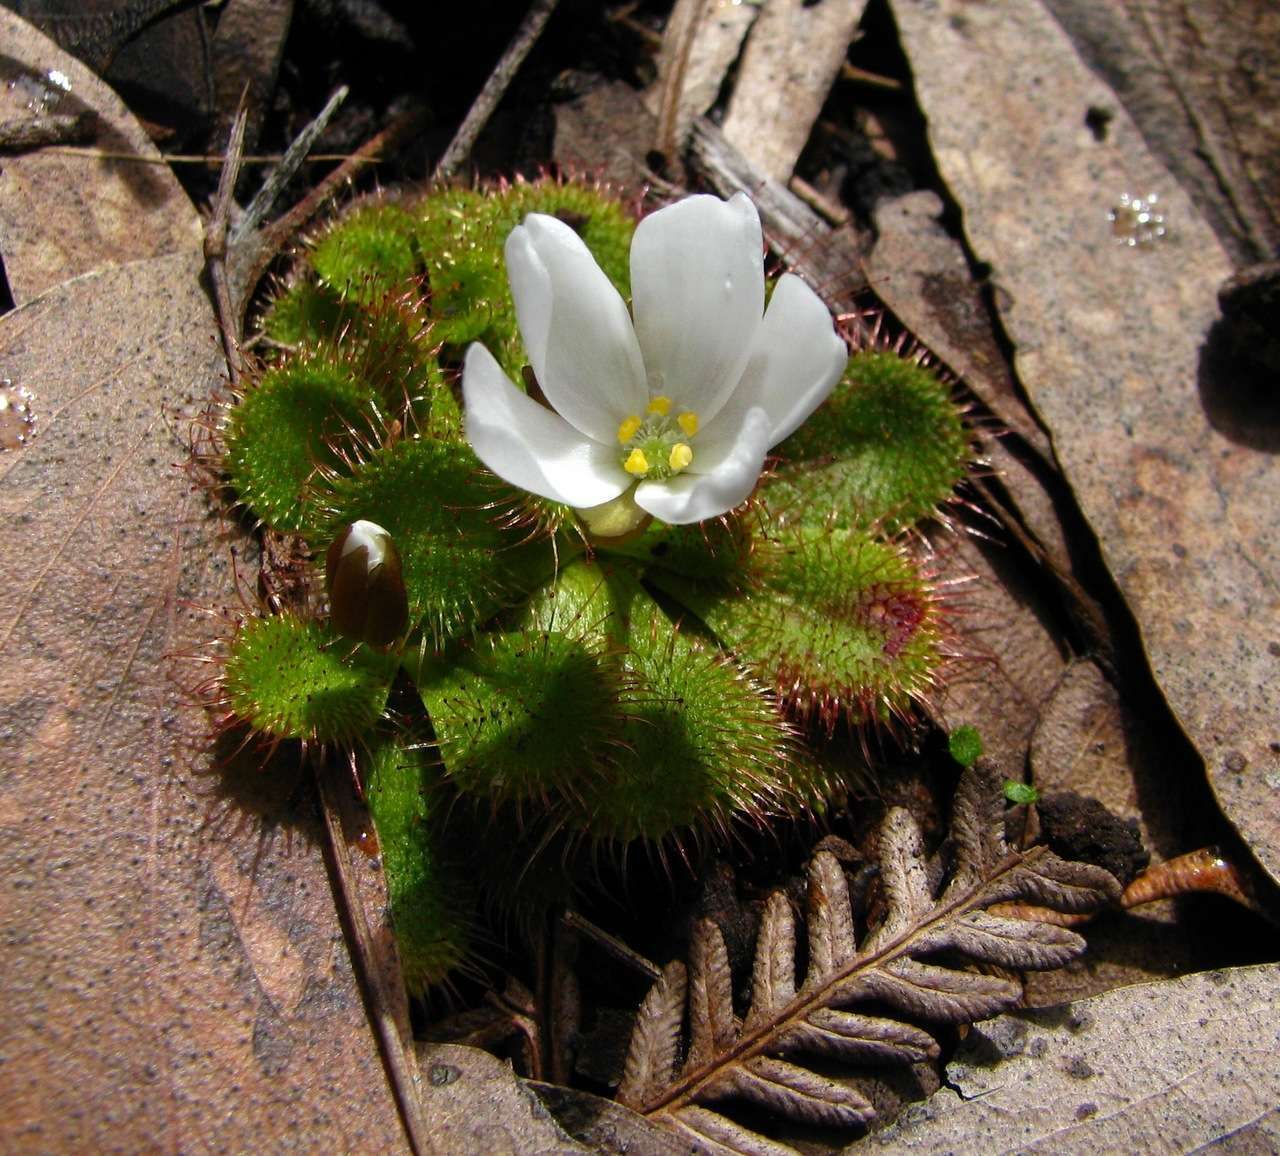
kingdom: Plantae
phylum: Tracheophyta
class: Magnoliopsida
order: Caryophyllales
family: Droseraceae
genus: Drosera
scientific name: Drosera aberrans
